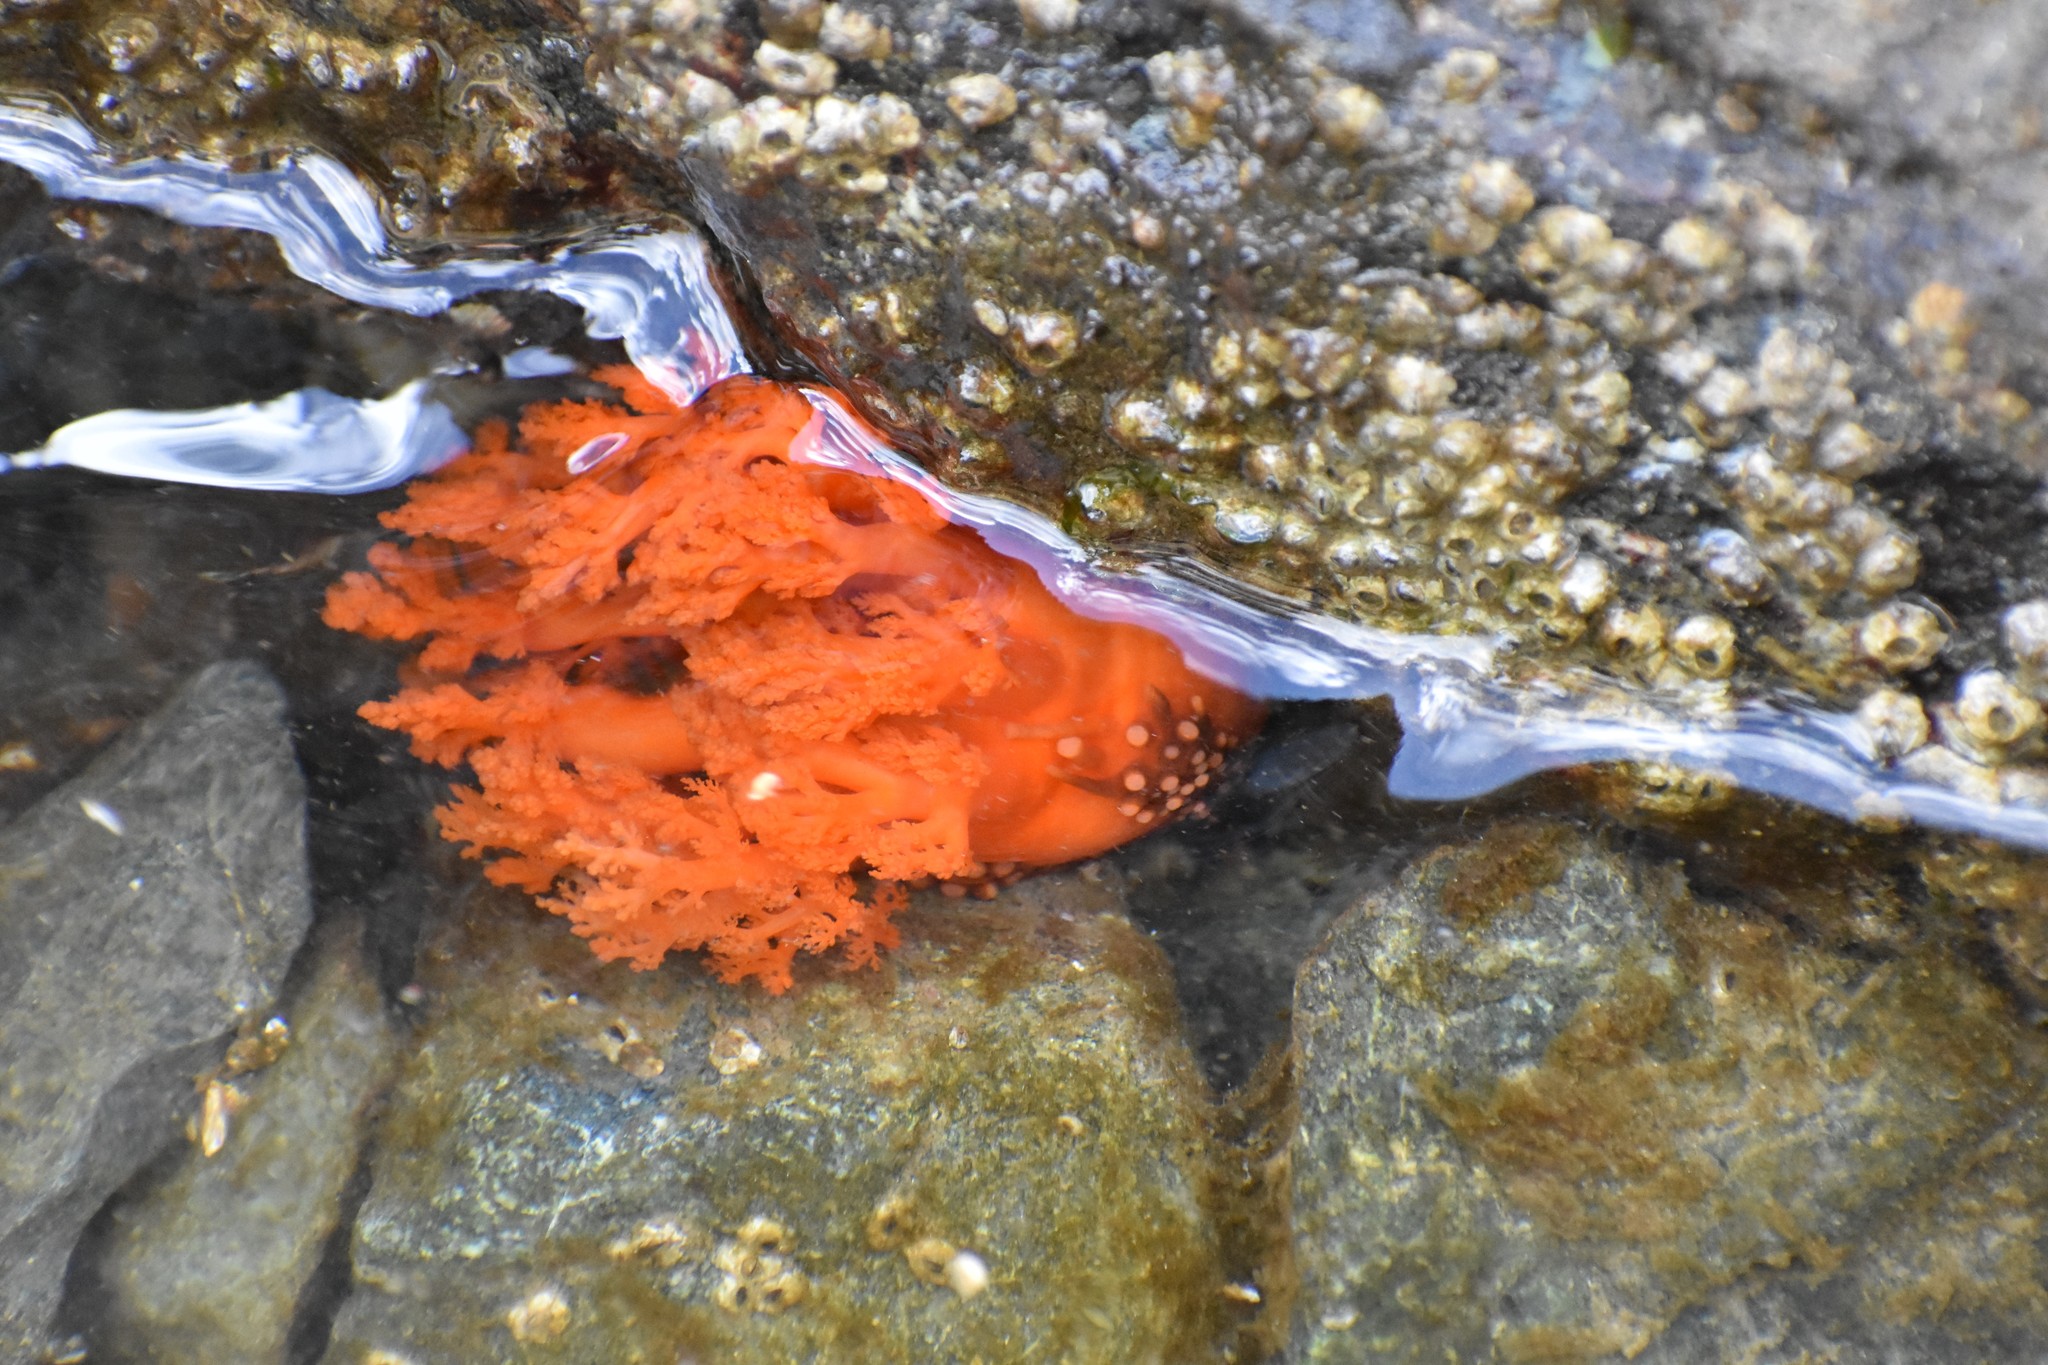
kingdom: Animalia
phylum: Echinodermata
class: Holothuroidea
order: Dendrochirotida
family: Cucumariidae
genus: Cucumaria
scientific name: Cucumaria miniata
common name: Orange sea cucumber
